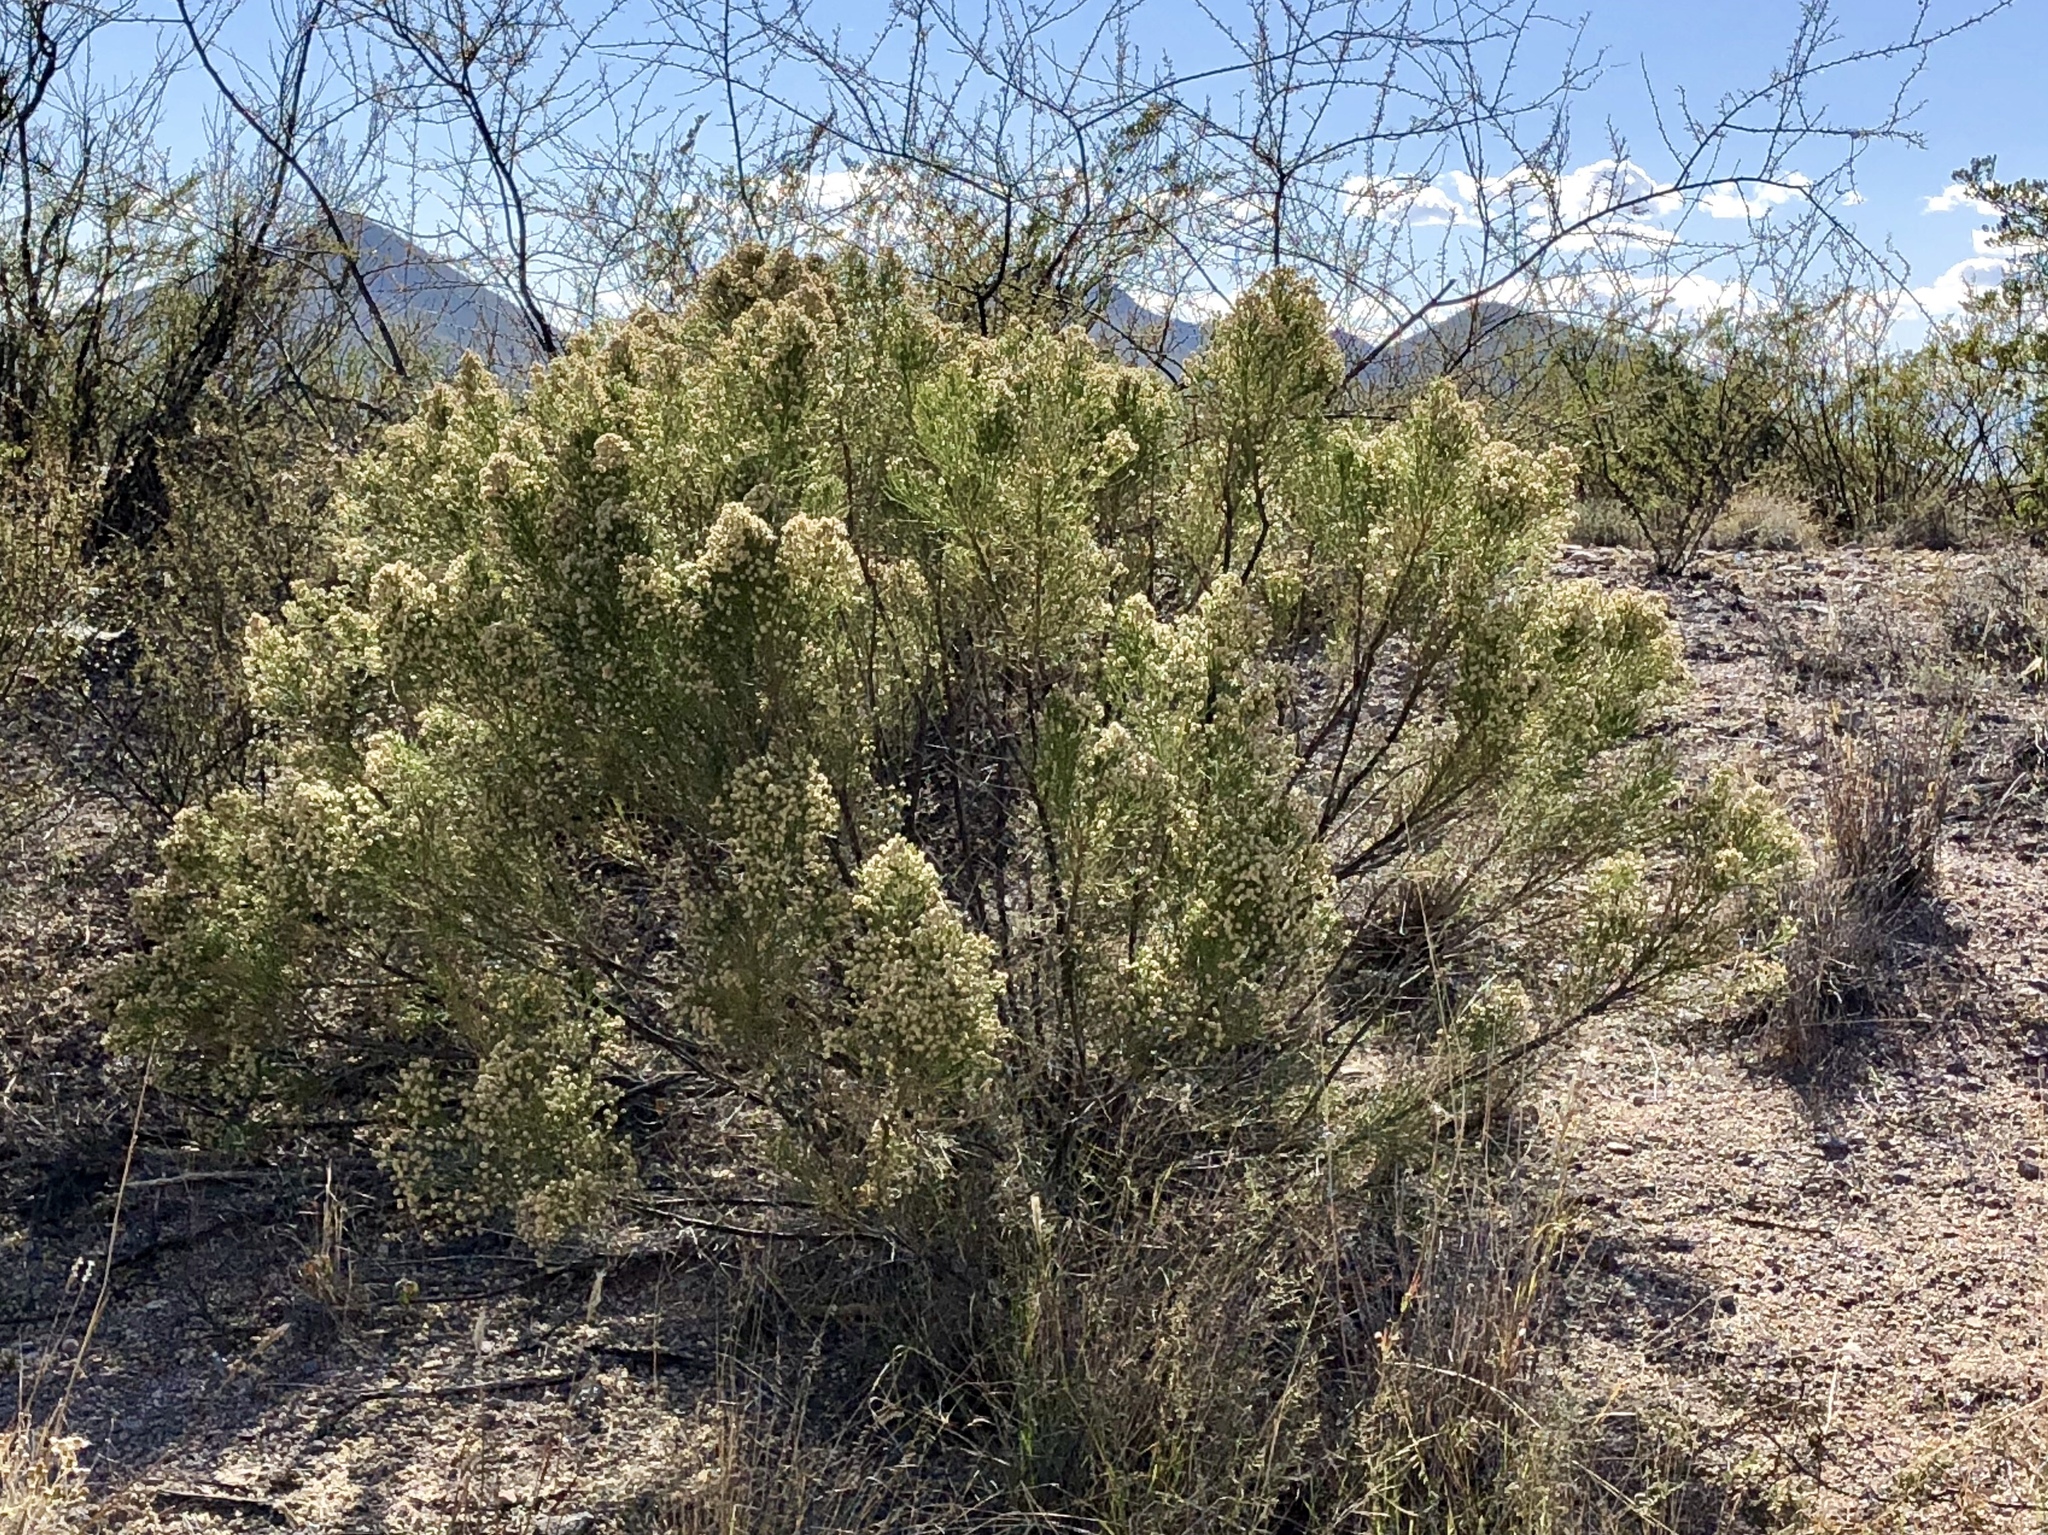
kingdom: Plantae
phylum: Tracheophyta
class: Magnoliopsida
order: Asterales
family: Asteraceae
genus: Baccharis
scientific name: Baccharis sarothroides
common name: Desert-broom
